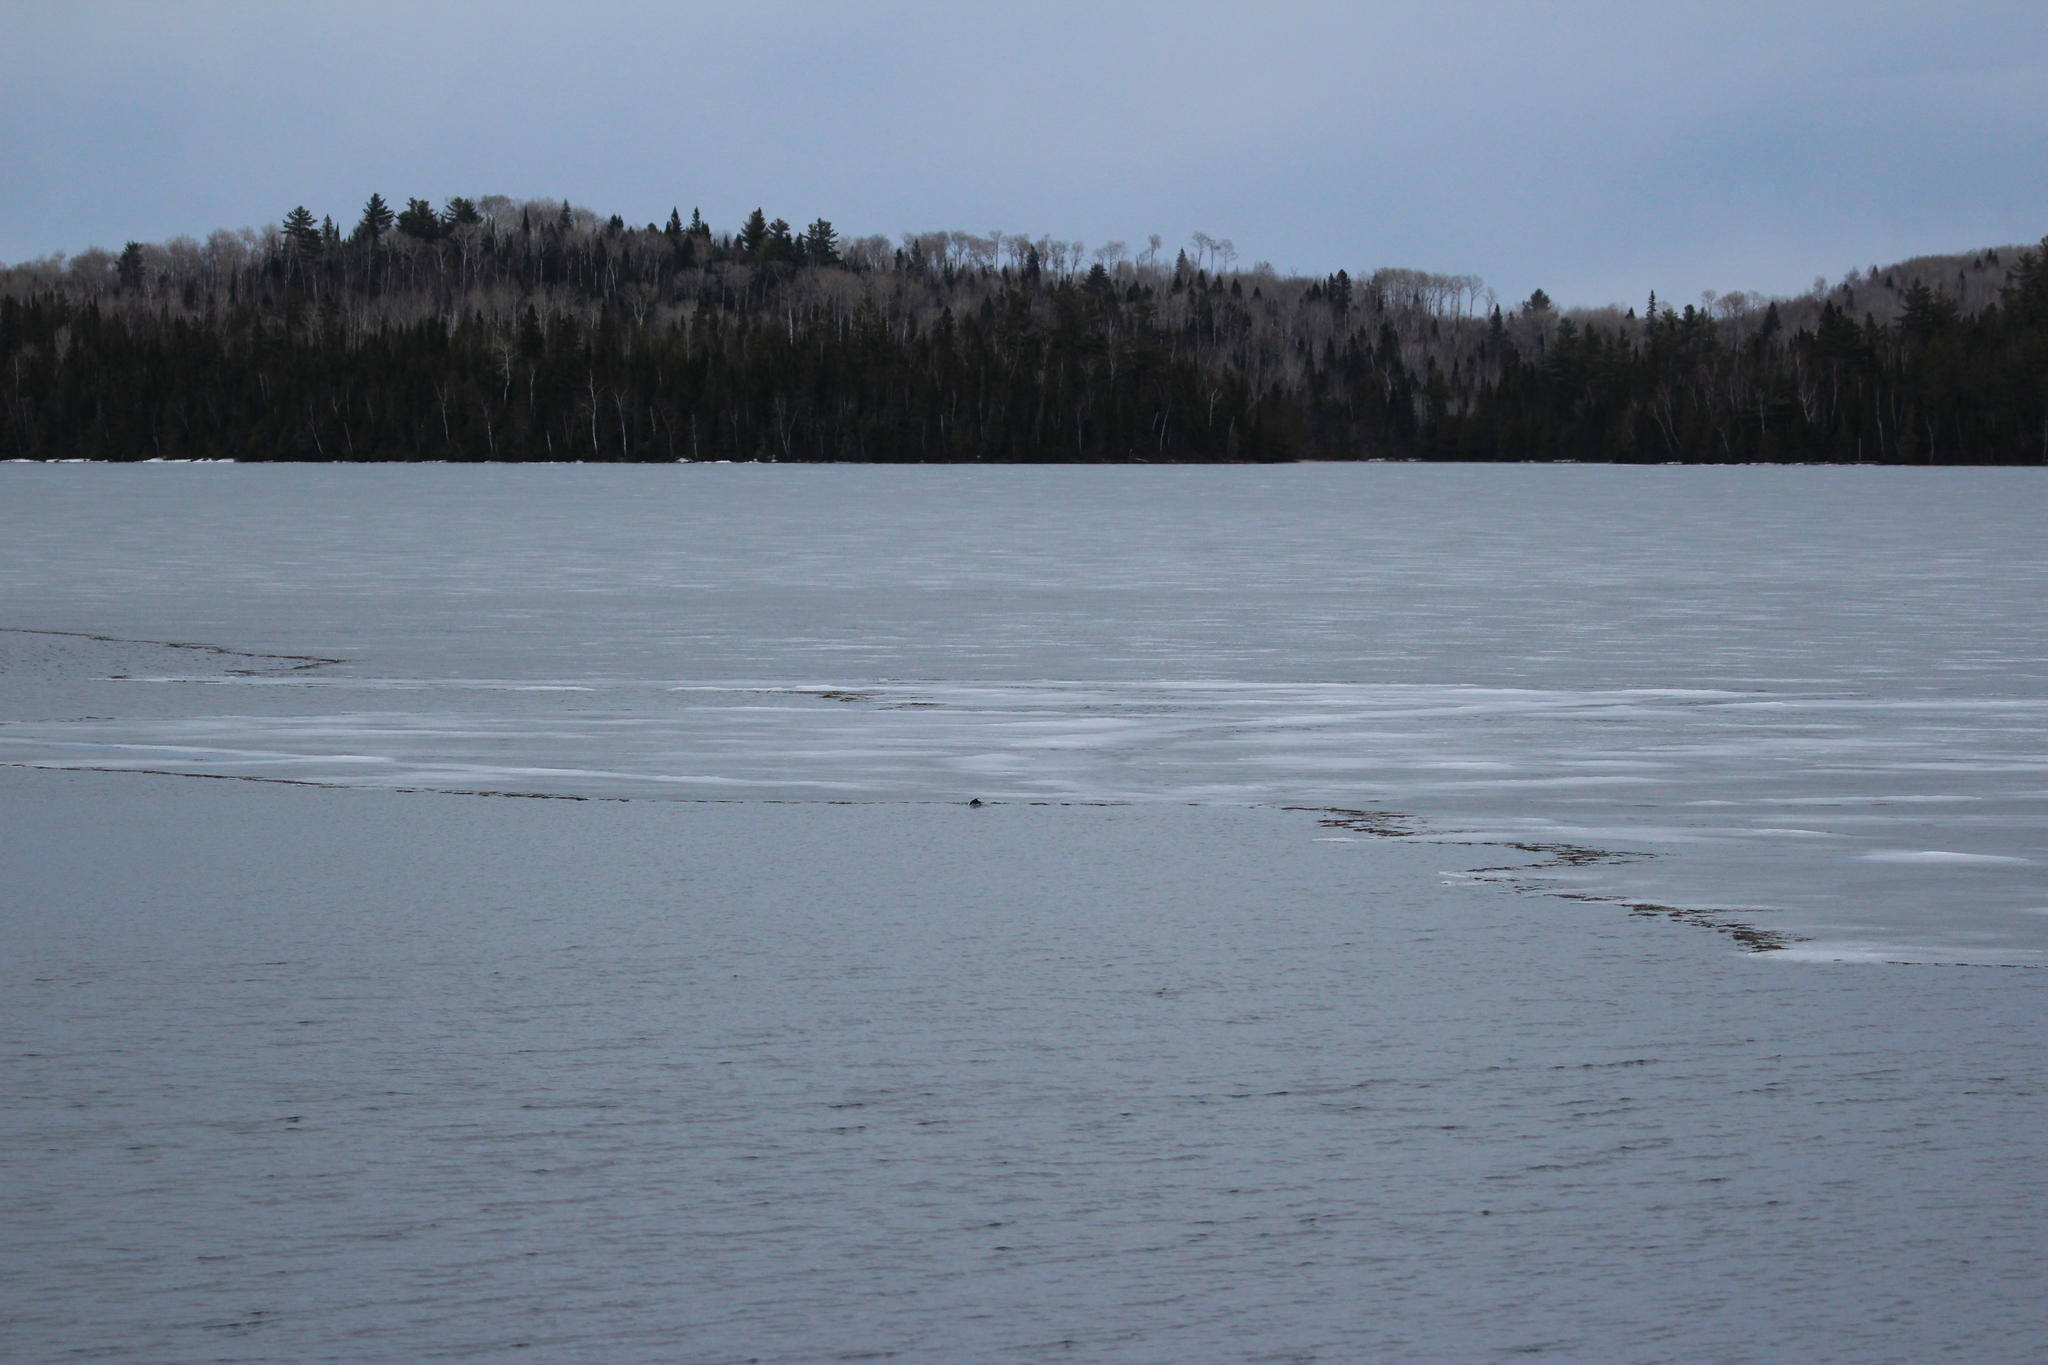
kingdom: Animalia
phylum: Chordata
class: Aves
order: Anseriformes
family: Anatidae
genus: Bucephala
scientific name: Bucephala clangula
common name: Common goldeneye
